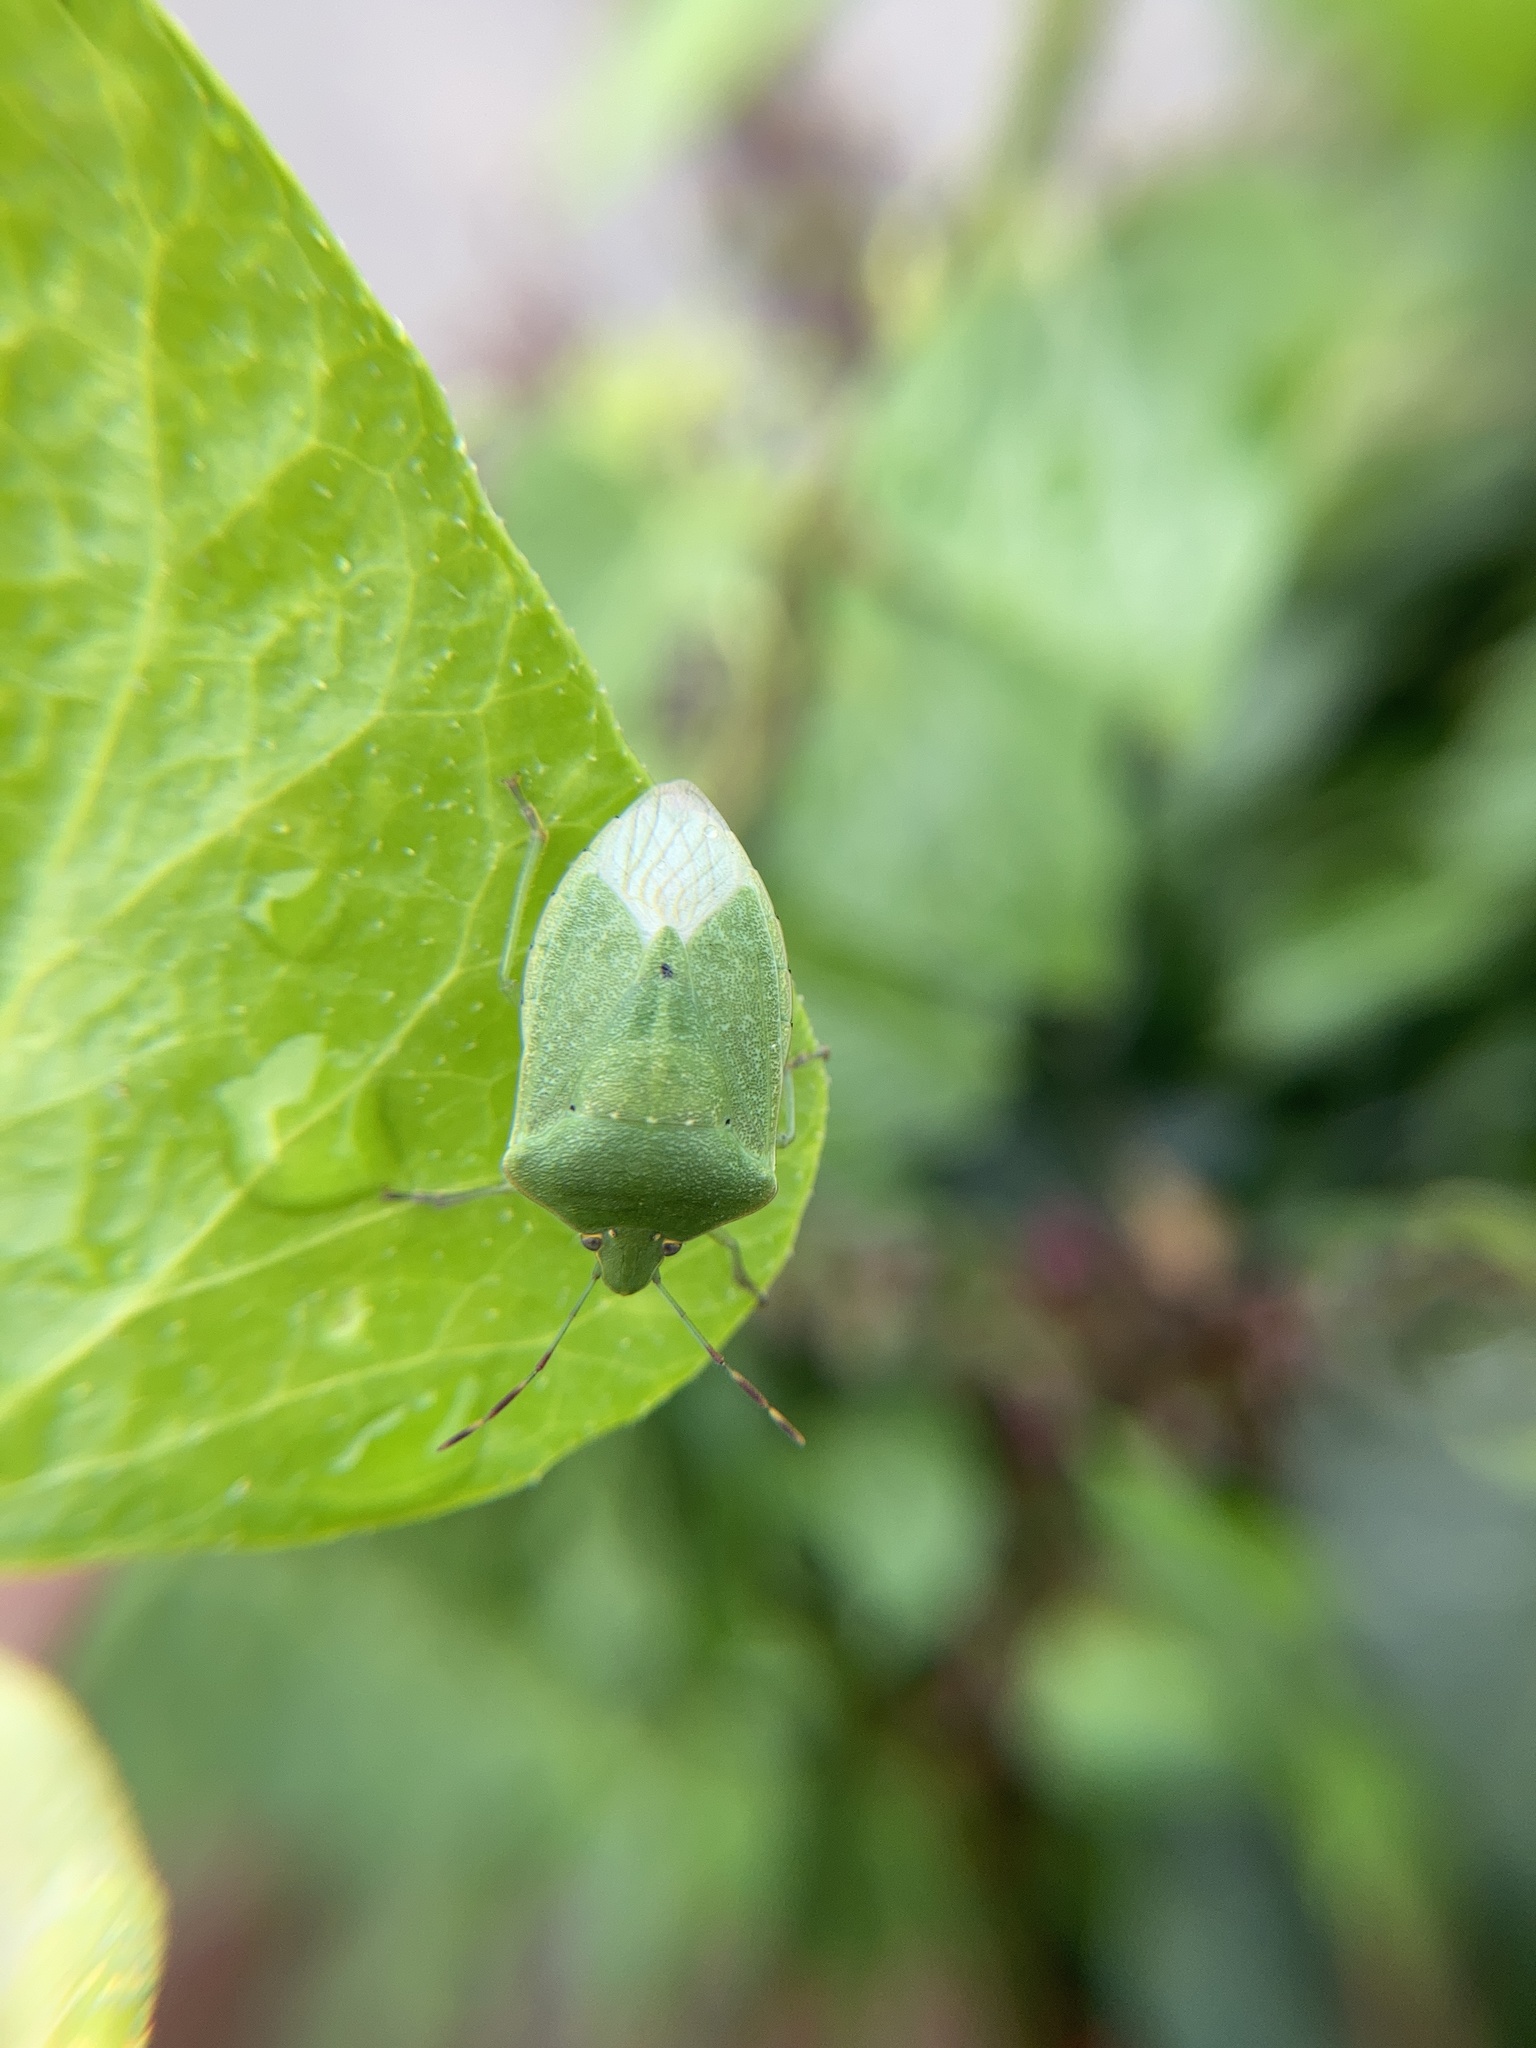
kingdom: Animalia
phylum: Arthropoda
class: Insecta
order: Hemiptera
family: Pentatomidae
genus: Nezara
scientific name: Nezara viridula
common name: Southern green stink bug
